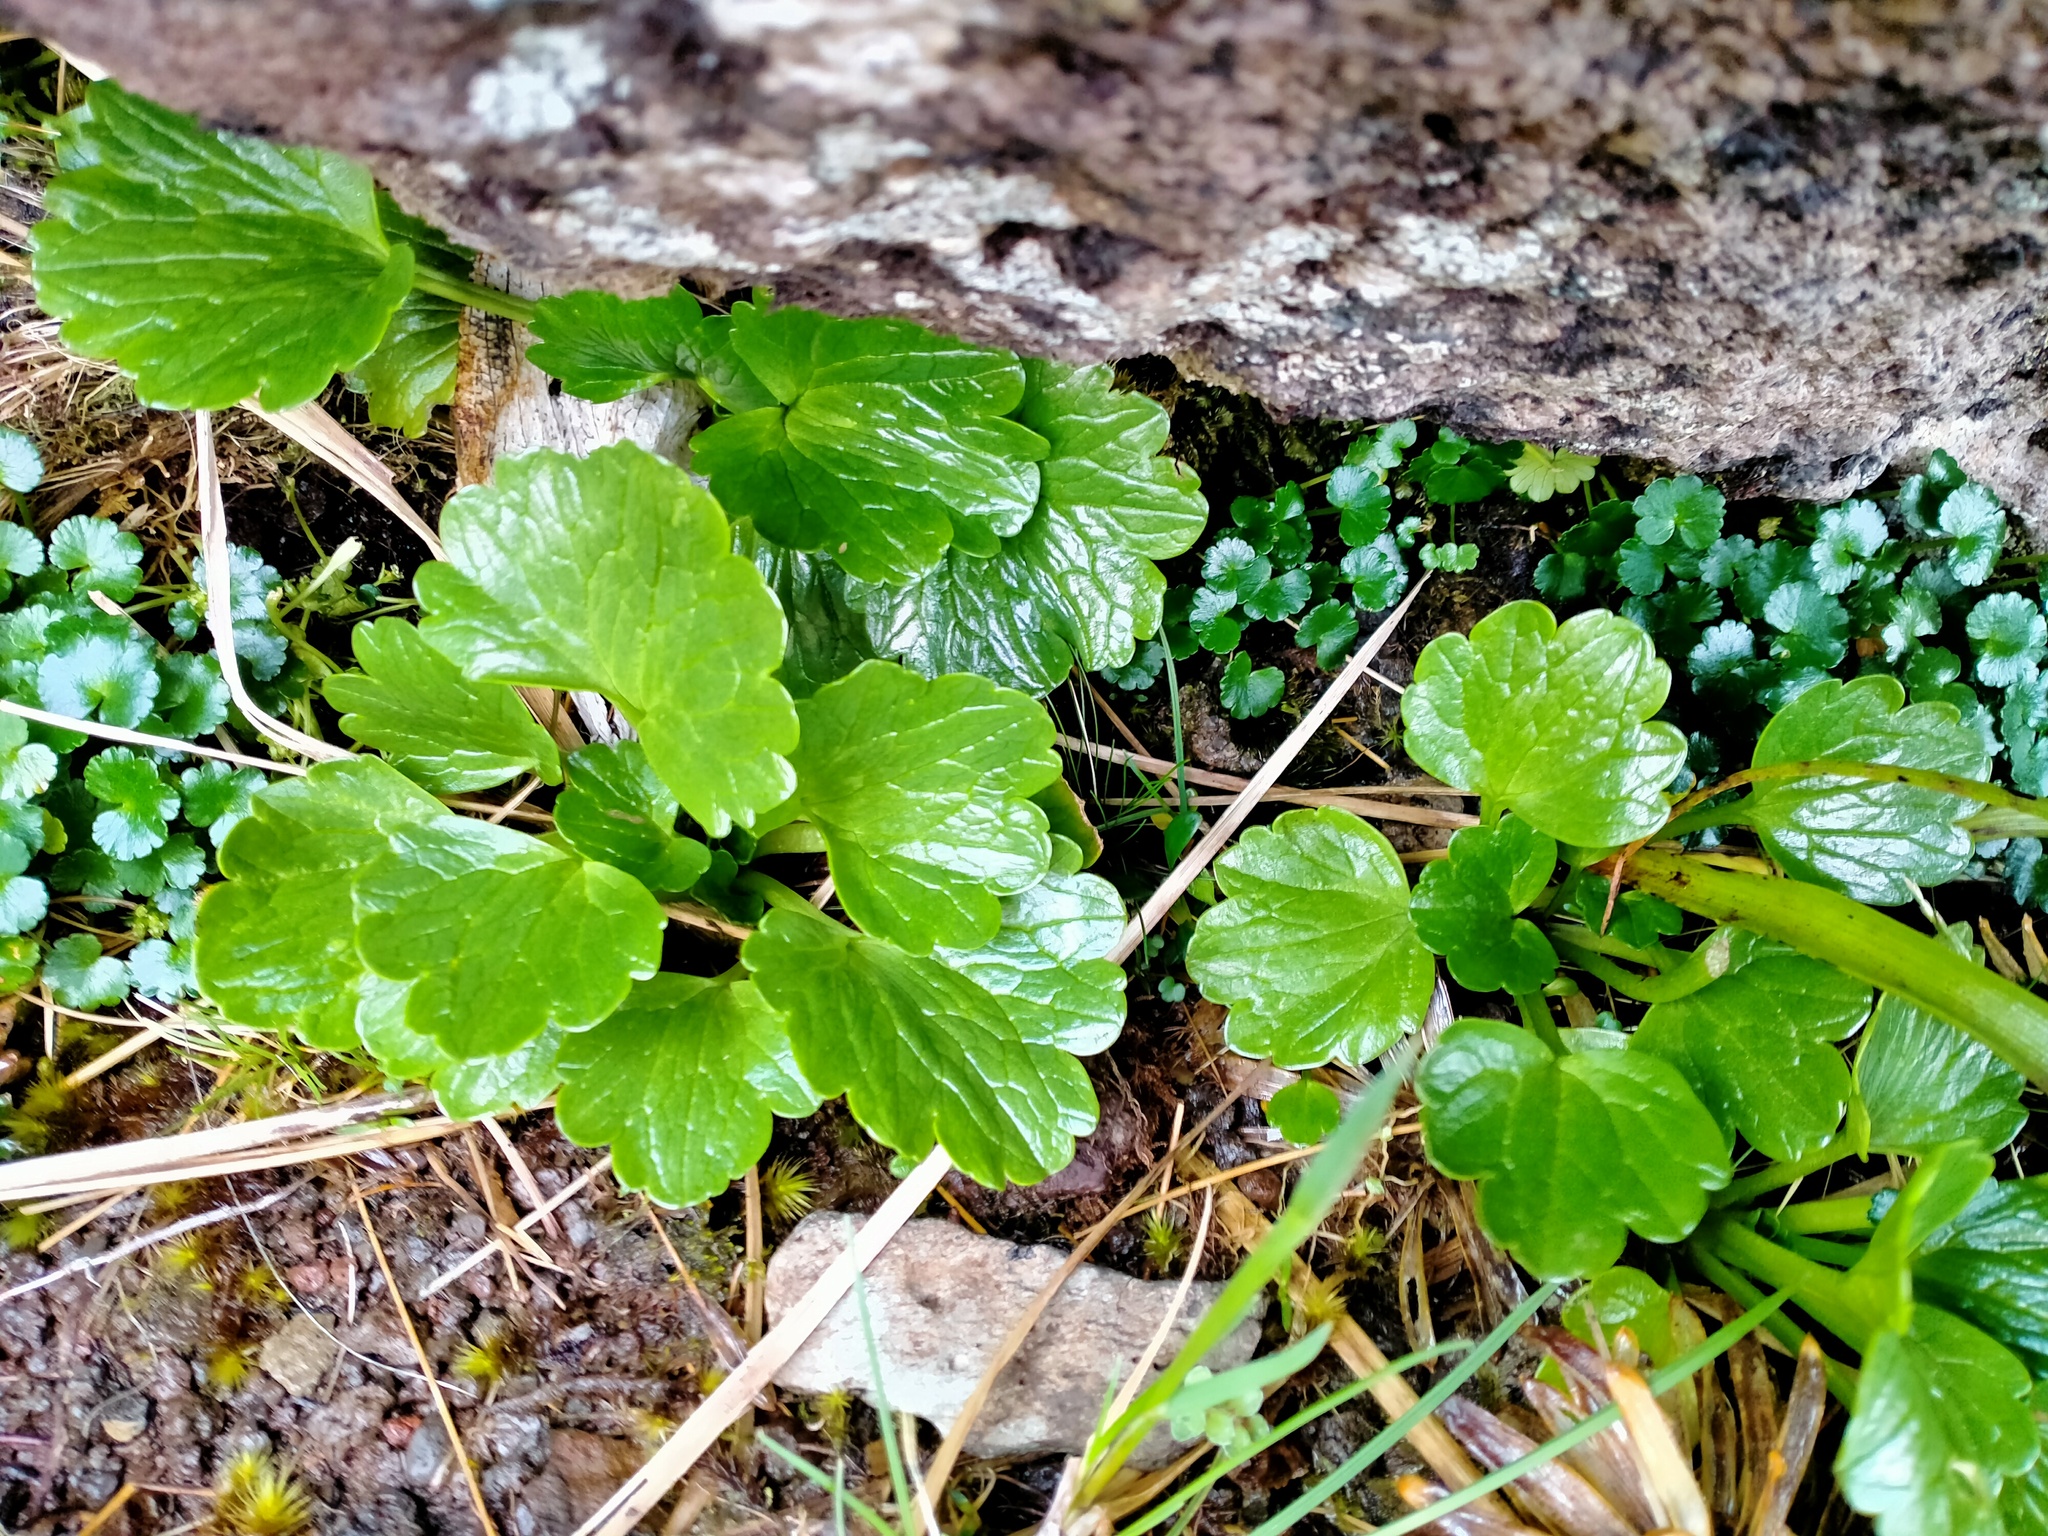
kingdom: Plantae
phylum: Tracheophyta
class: Magnoliopsida
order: Ranunculales
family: Ranunculaceae
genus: Ranunculus
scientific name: Ranunculus pinguis
